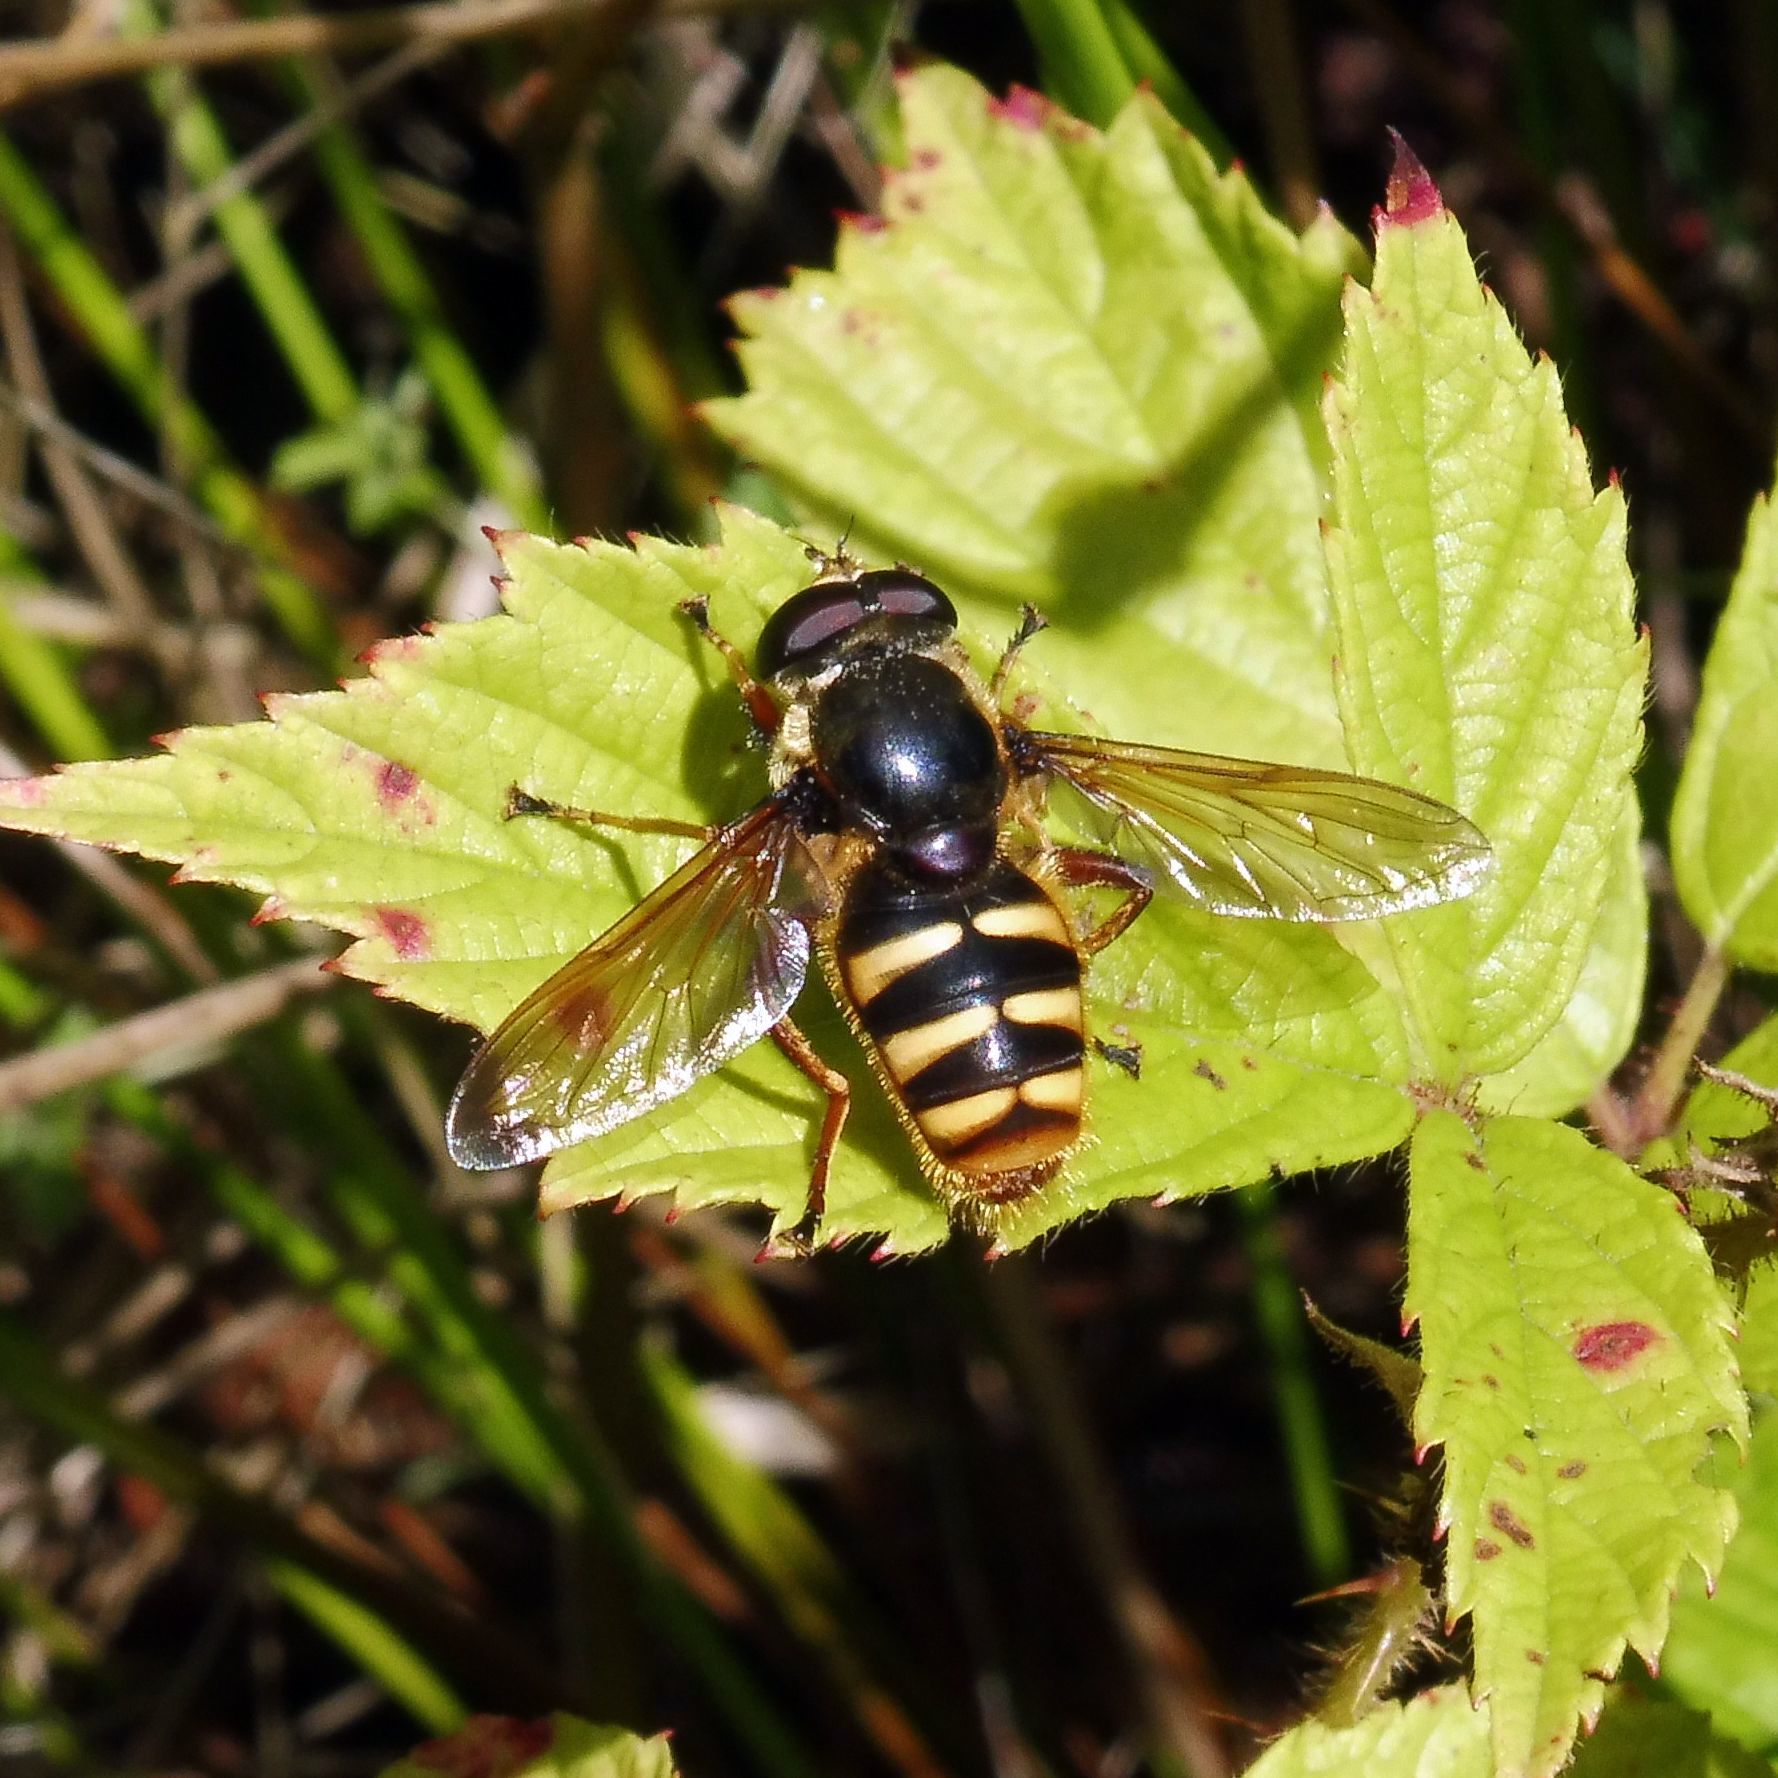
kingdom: Animalia
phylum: Arthropoda
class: Insecta
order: Diptera
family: Syrphidae
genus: Sericomyia
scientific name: Sericomyia silentis
